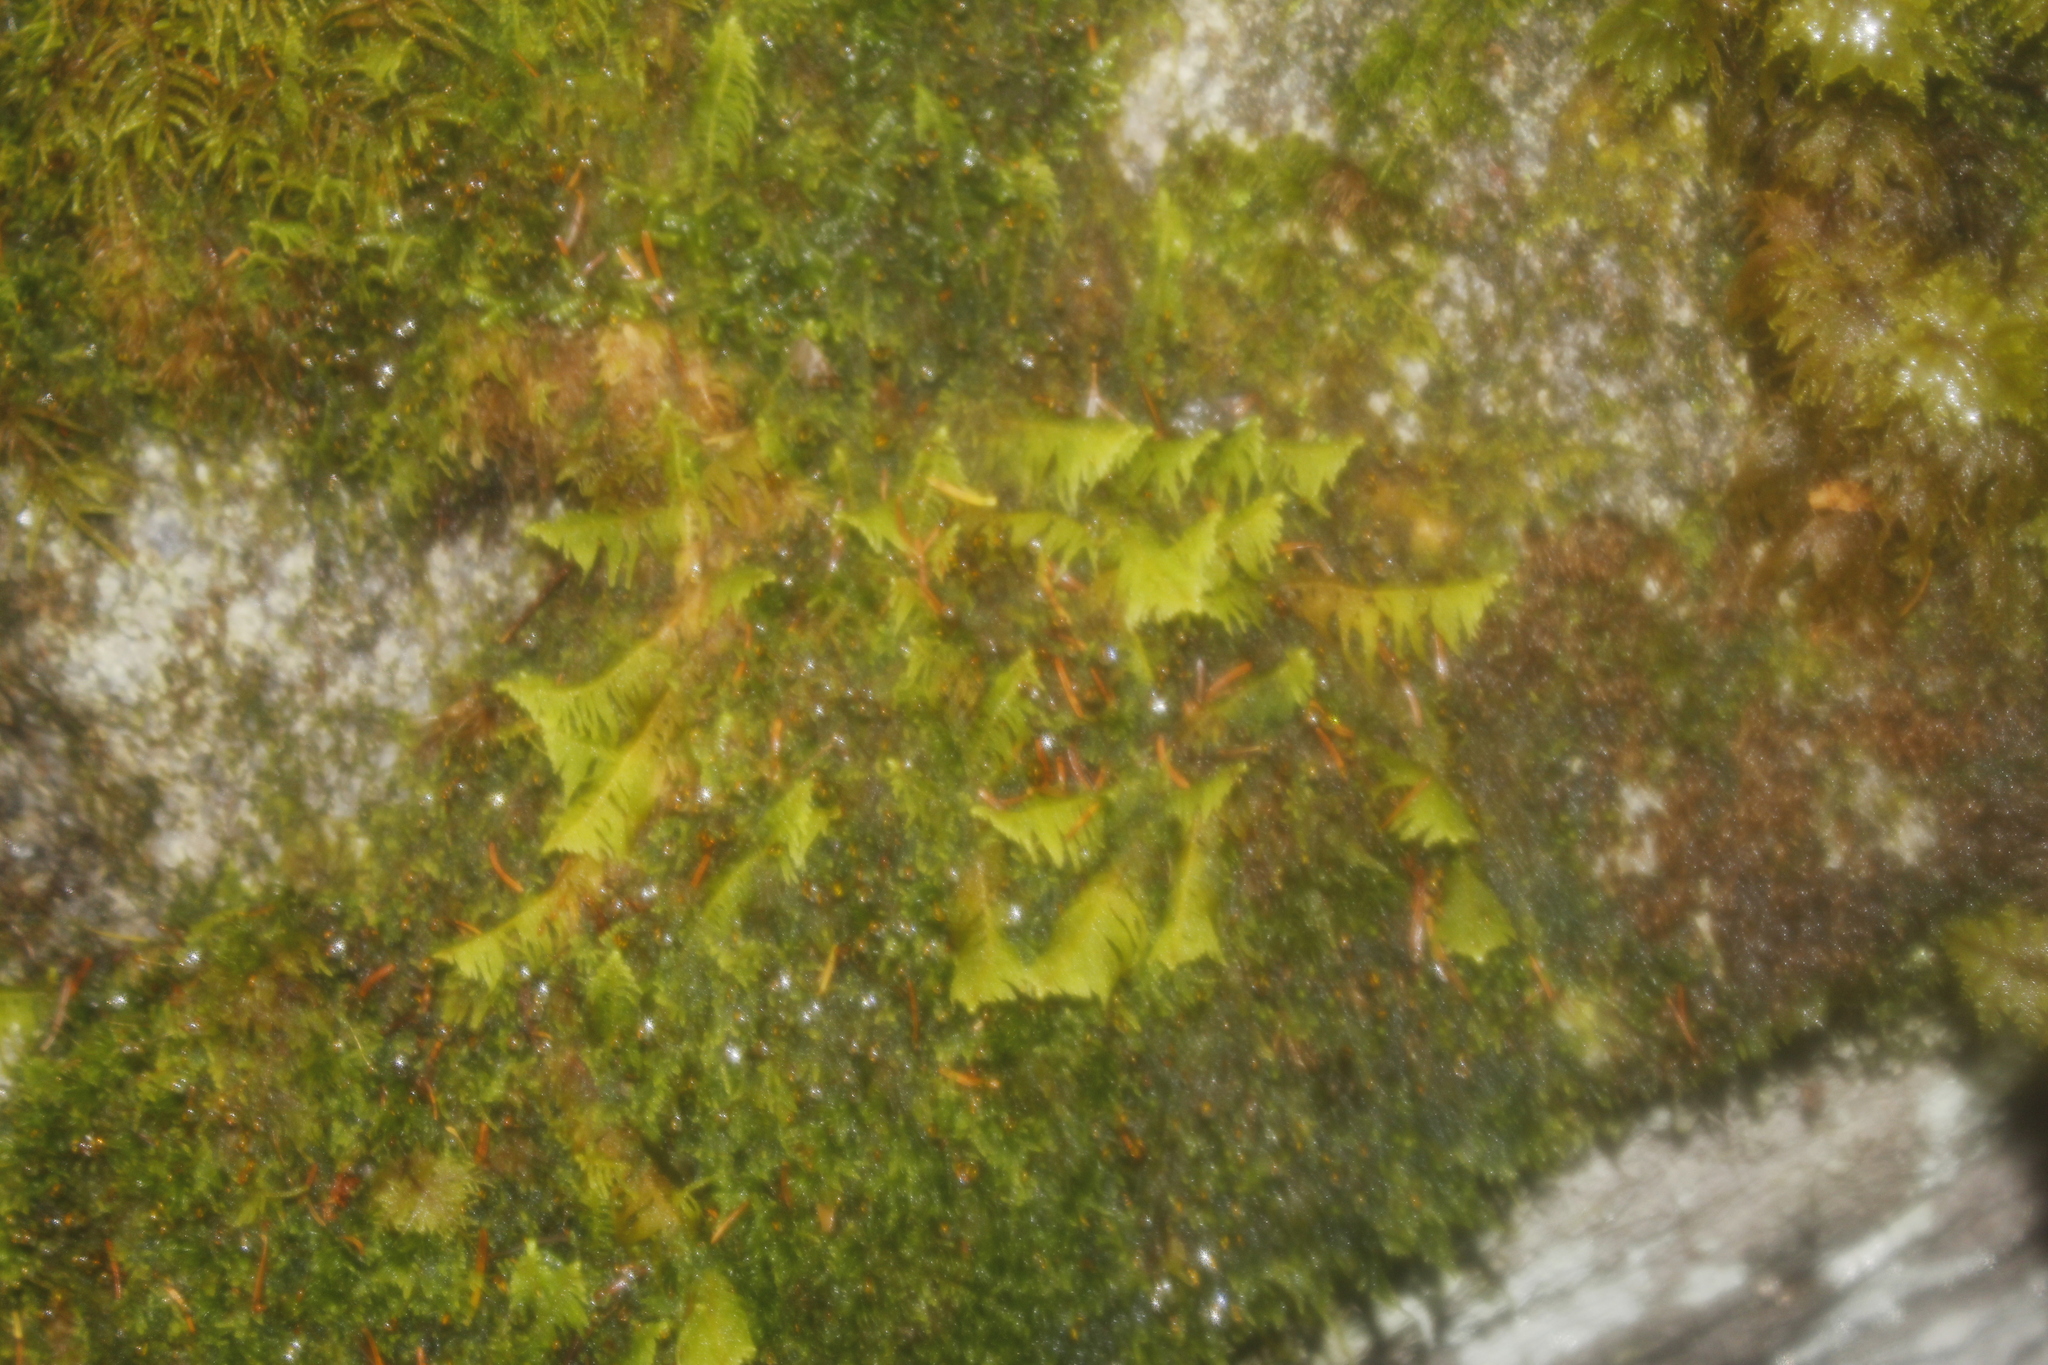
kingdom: Plantae
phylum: Bryophyta
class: Bryopsida
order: Hypnales
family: Pylaisiaceae
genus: Ptilium
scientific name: Ptilium crista-castrensis
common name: Knight's plume moss
